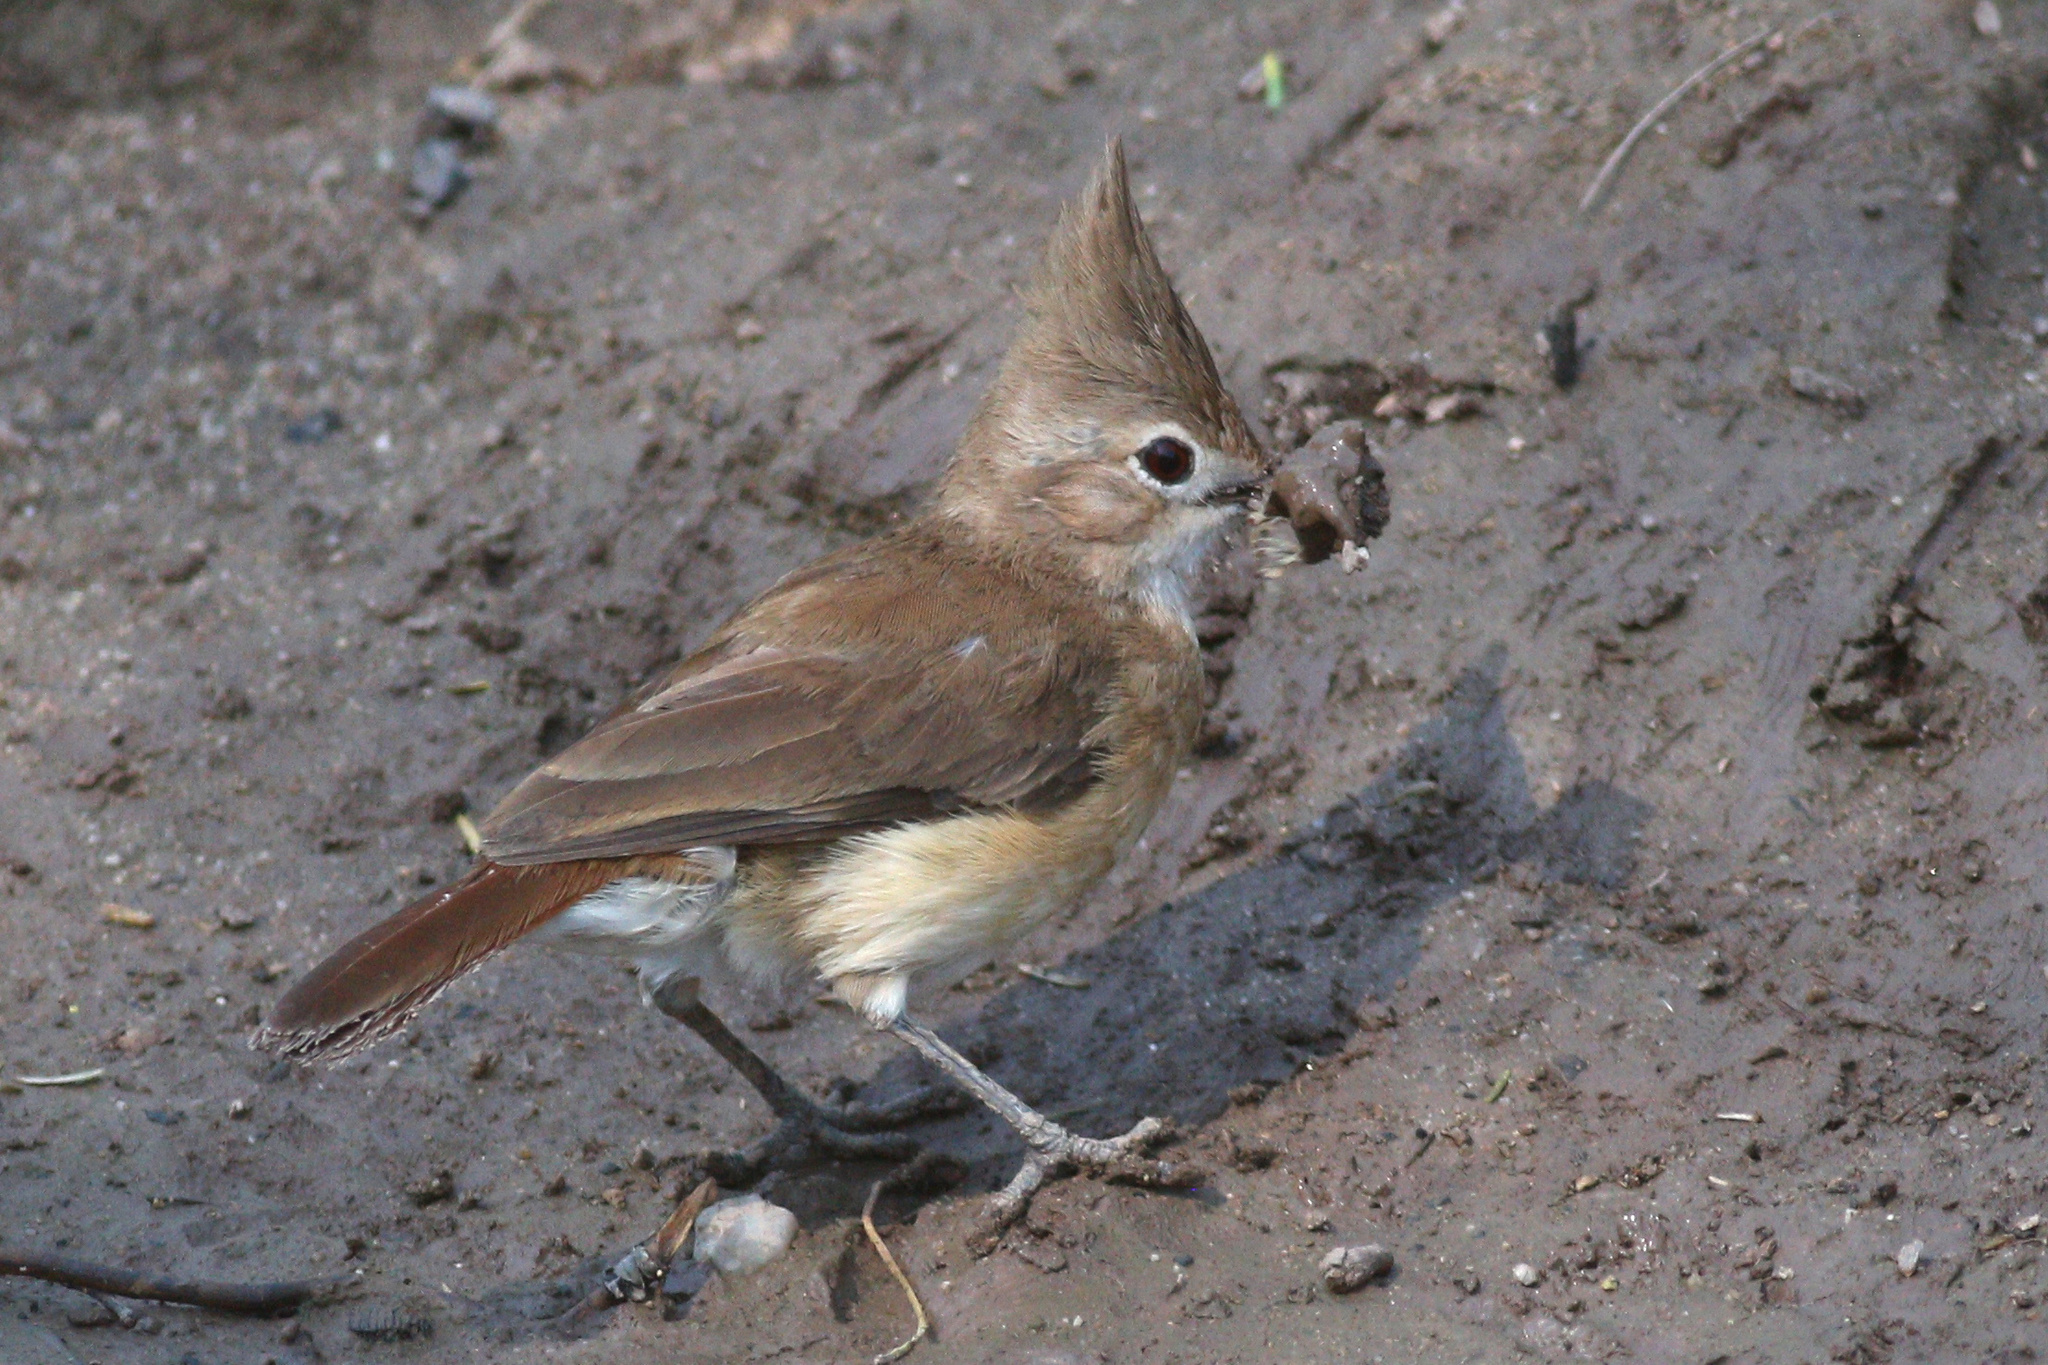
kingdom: Animalia
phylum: Chordata
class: Aves
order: Passeriformes
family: Furnariidae
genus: Furnarius
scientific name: Furnarius cristatus
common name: Crested hornero
